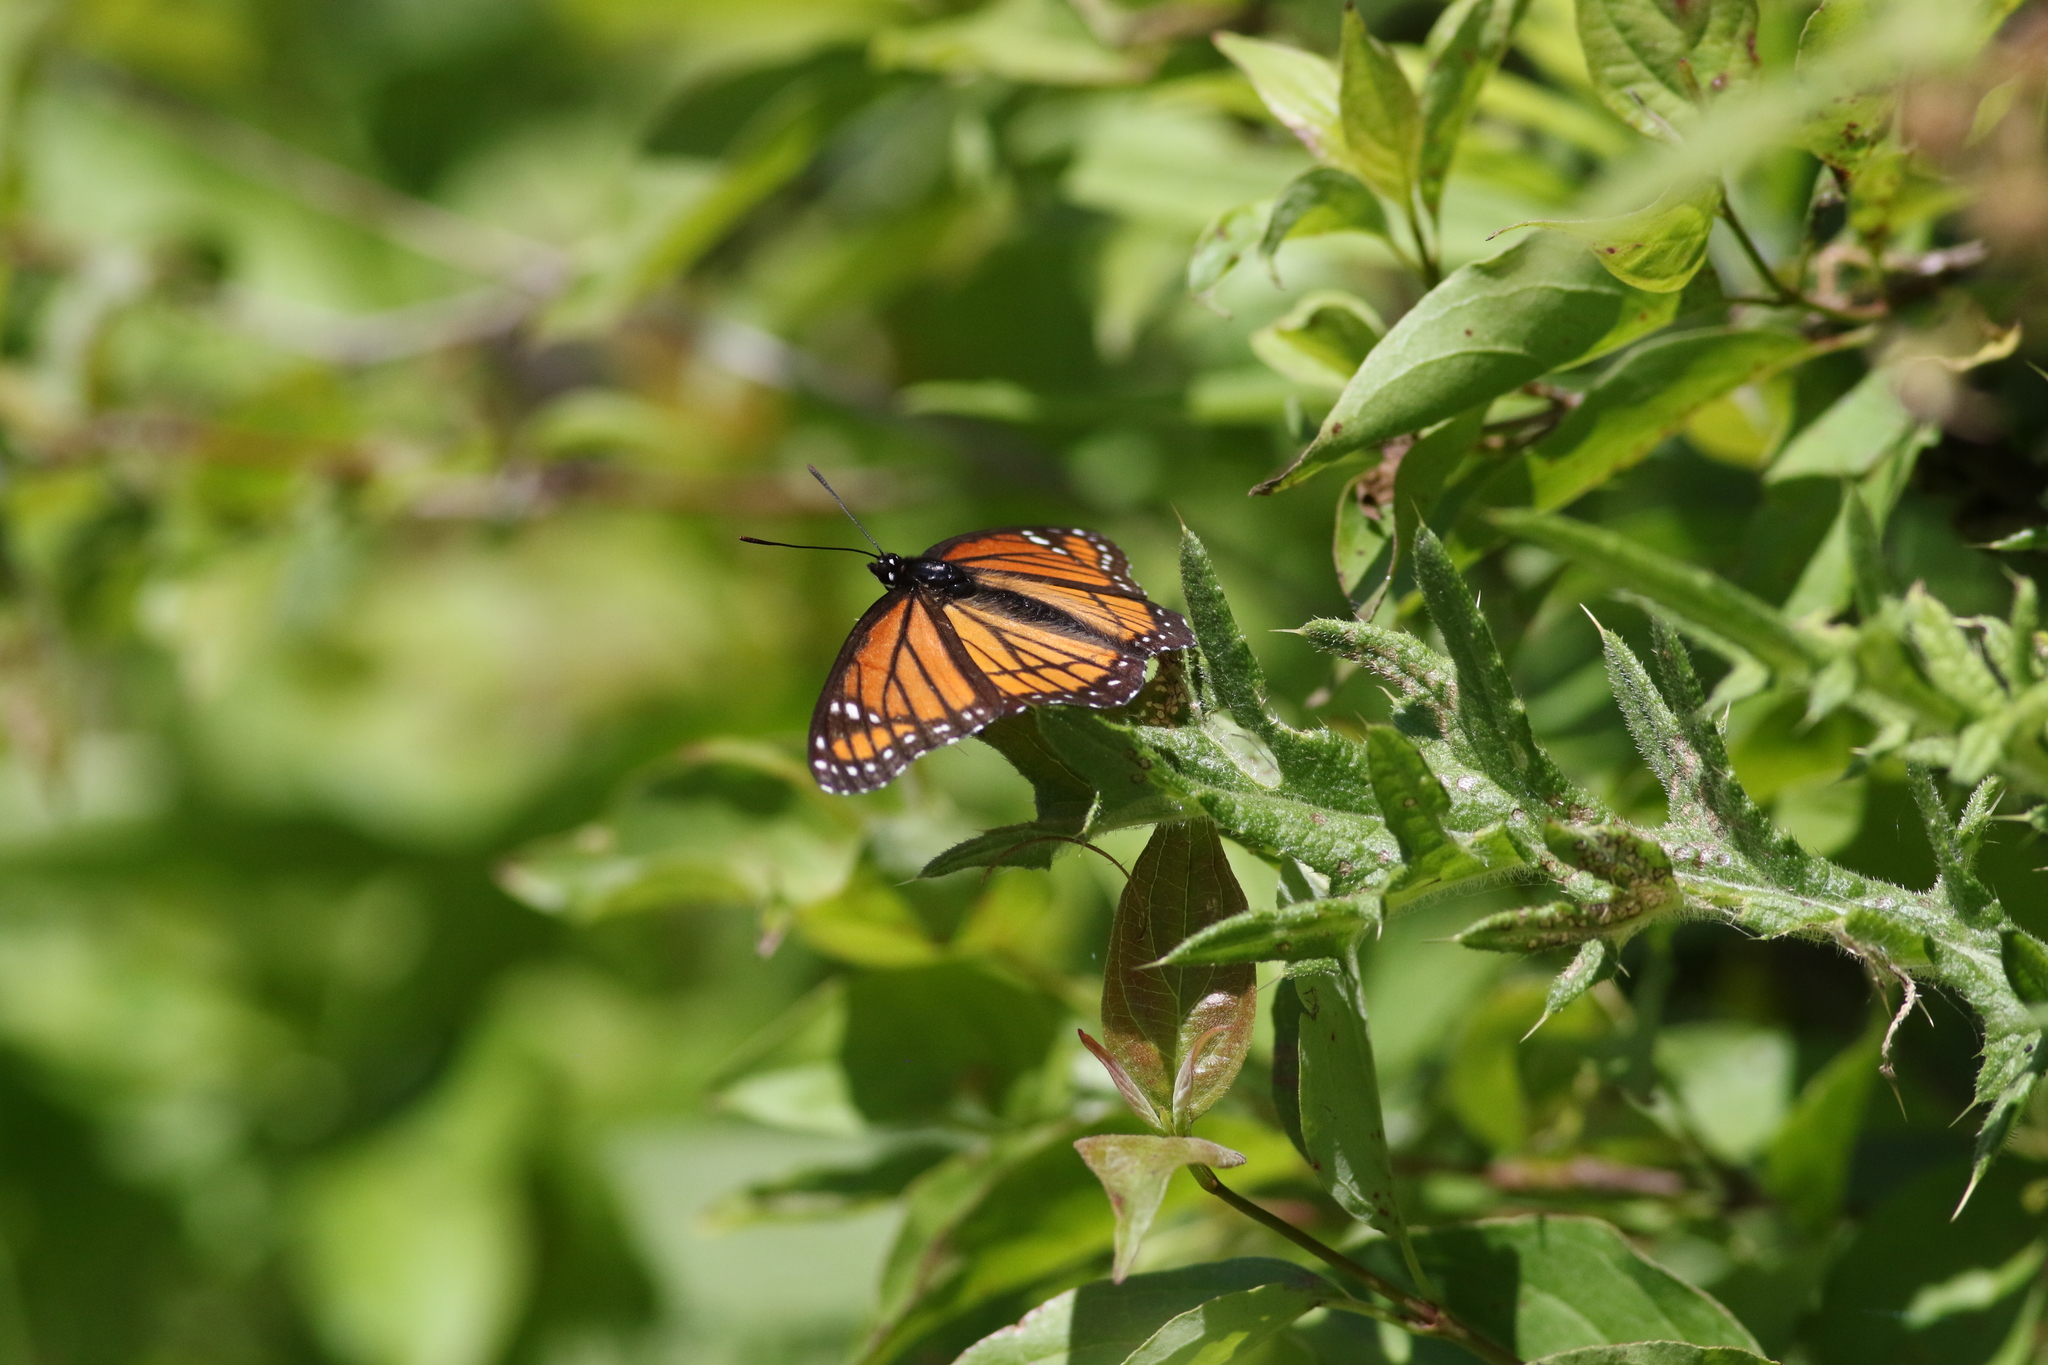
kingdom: Animalia
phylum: Arthropoda
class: Insecta
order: Lepidoptera
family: Nymphalidae
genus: Limenitis
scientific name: Limenitis archippus
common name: Viceroy
